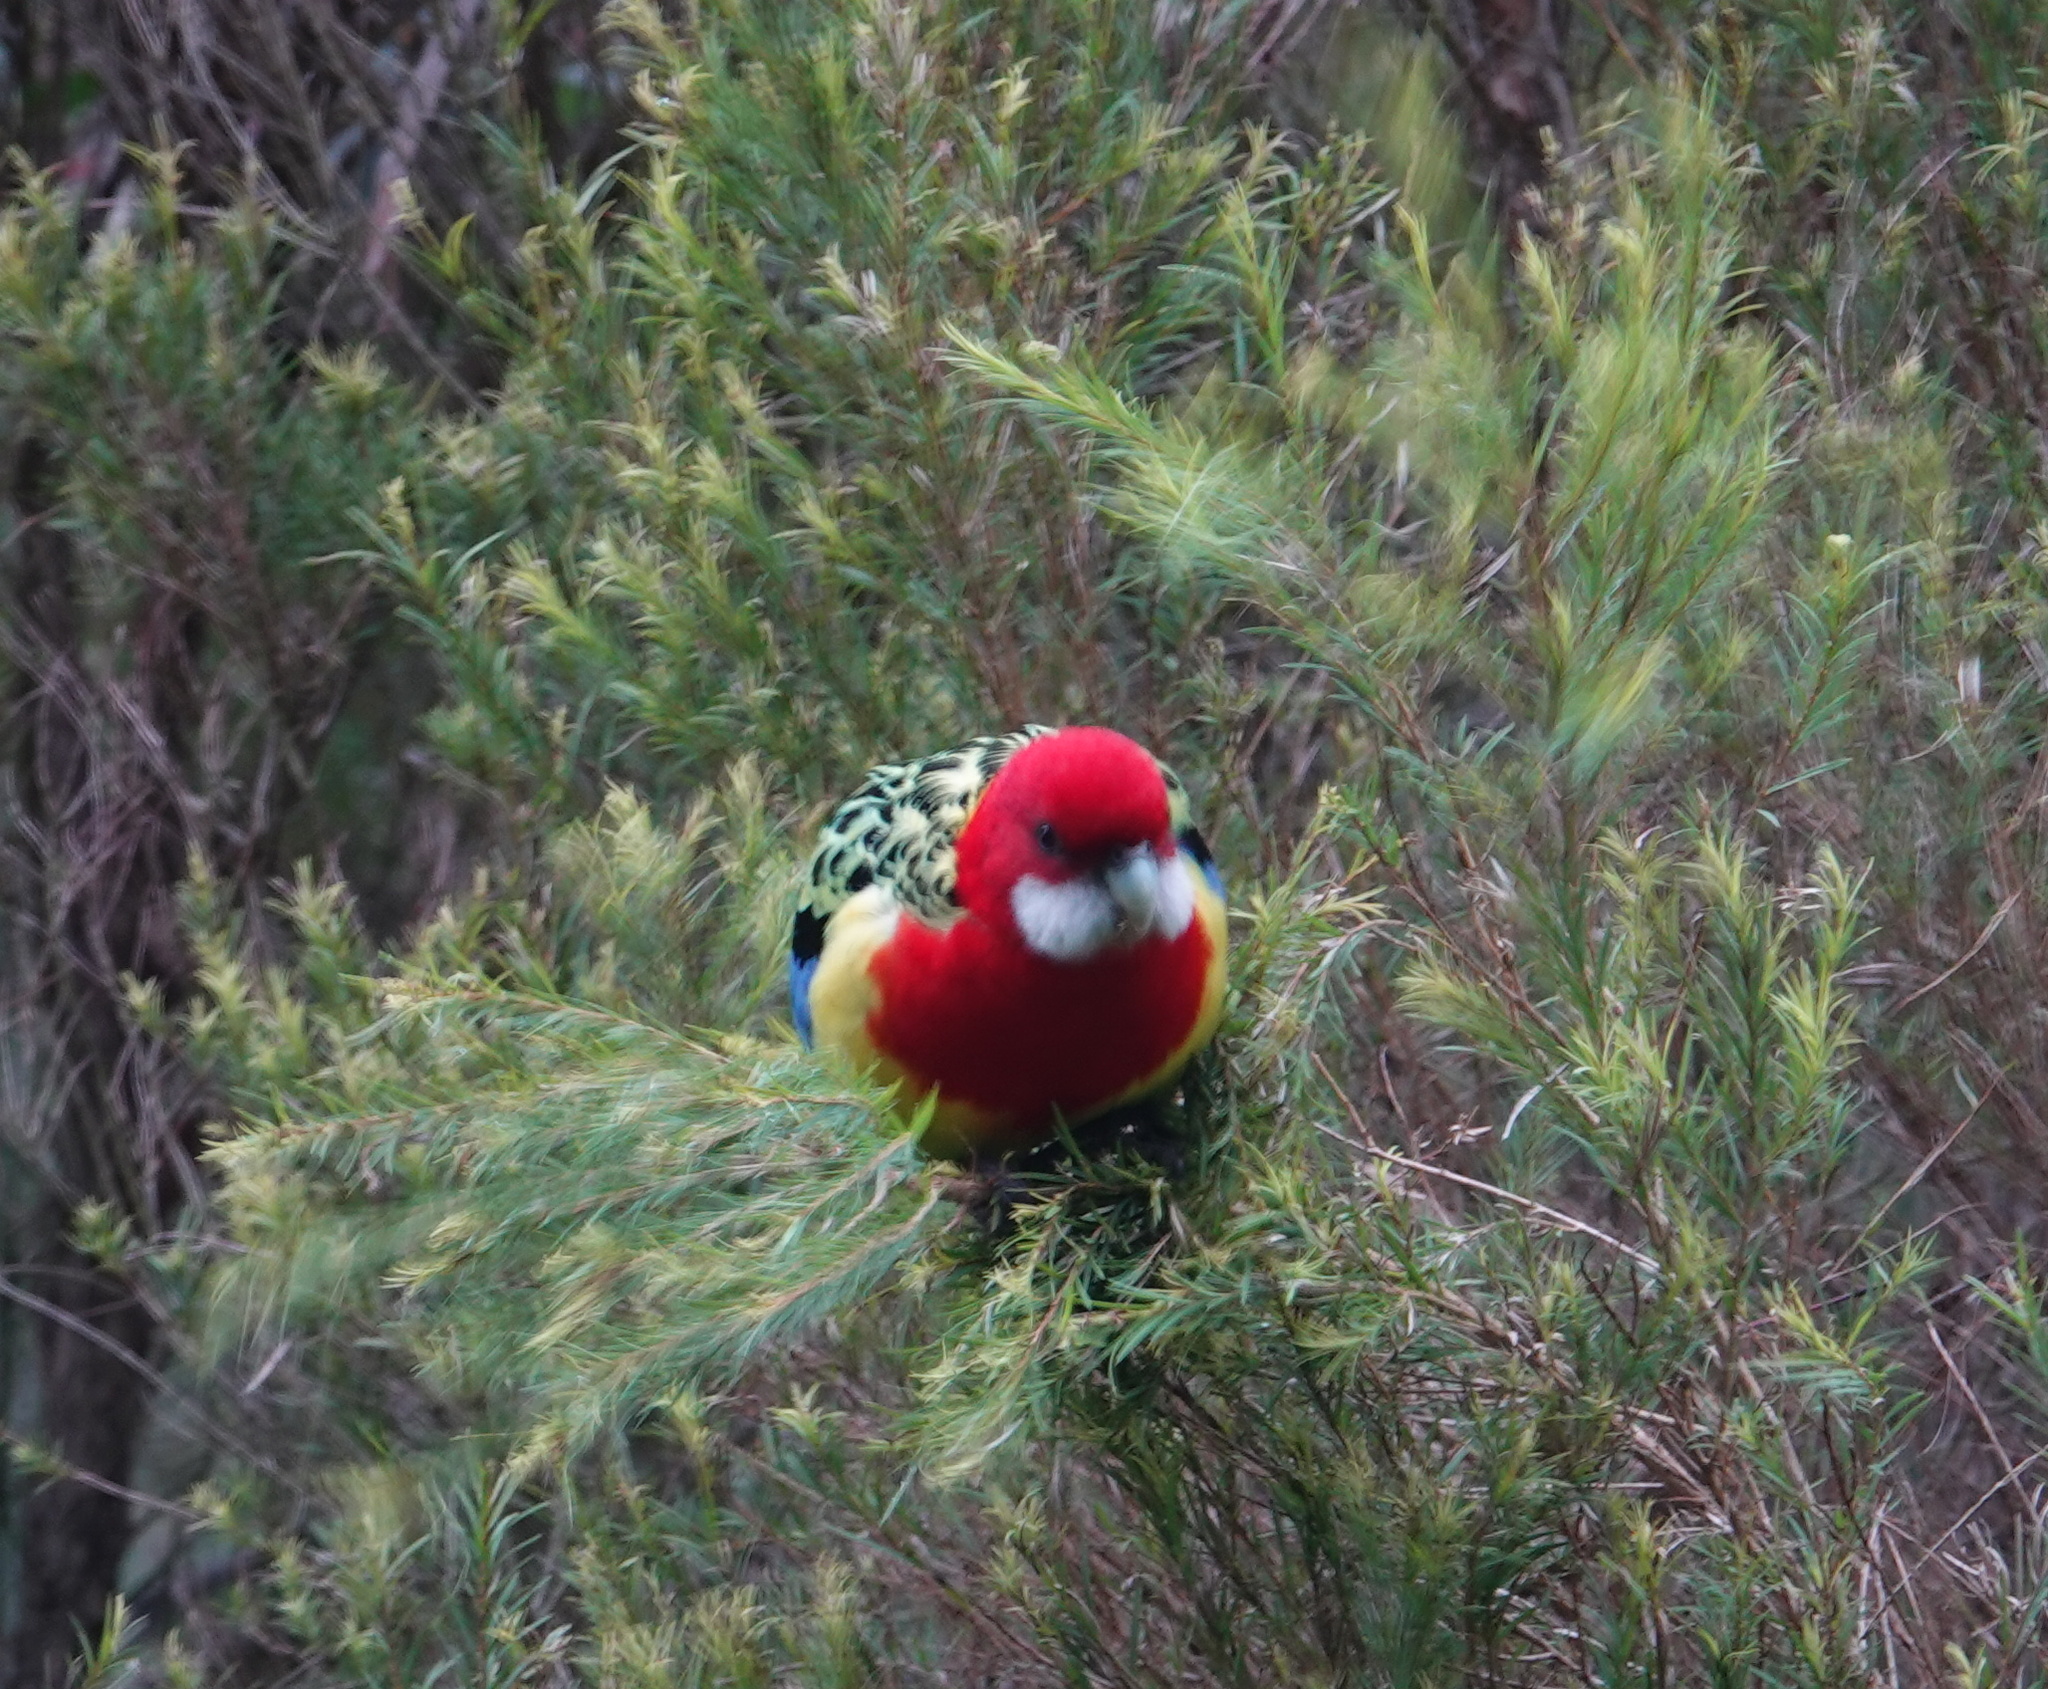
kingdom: Animalia
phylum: Chordata
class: Aves
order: Psittaciformes
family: Psittacidae
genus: Platycercus
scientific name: Platycercus eximius
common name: Eastern rosella
